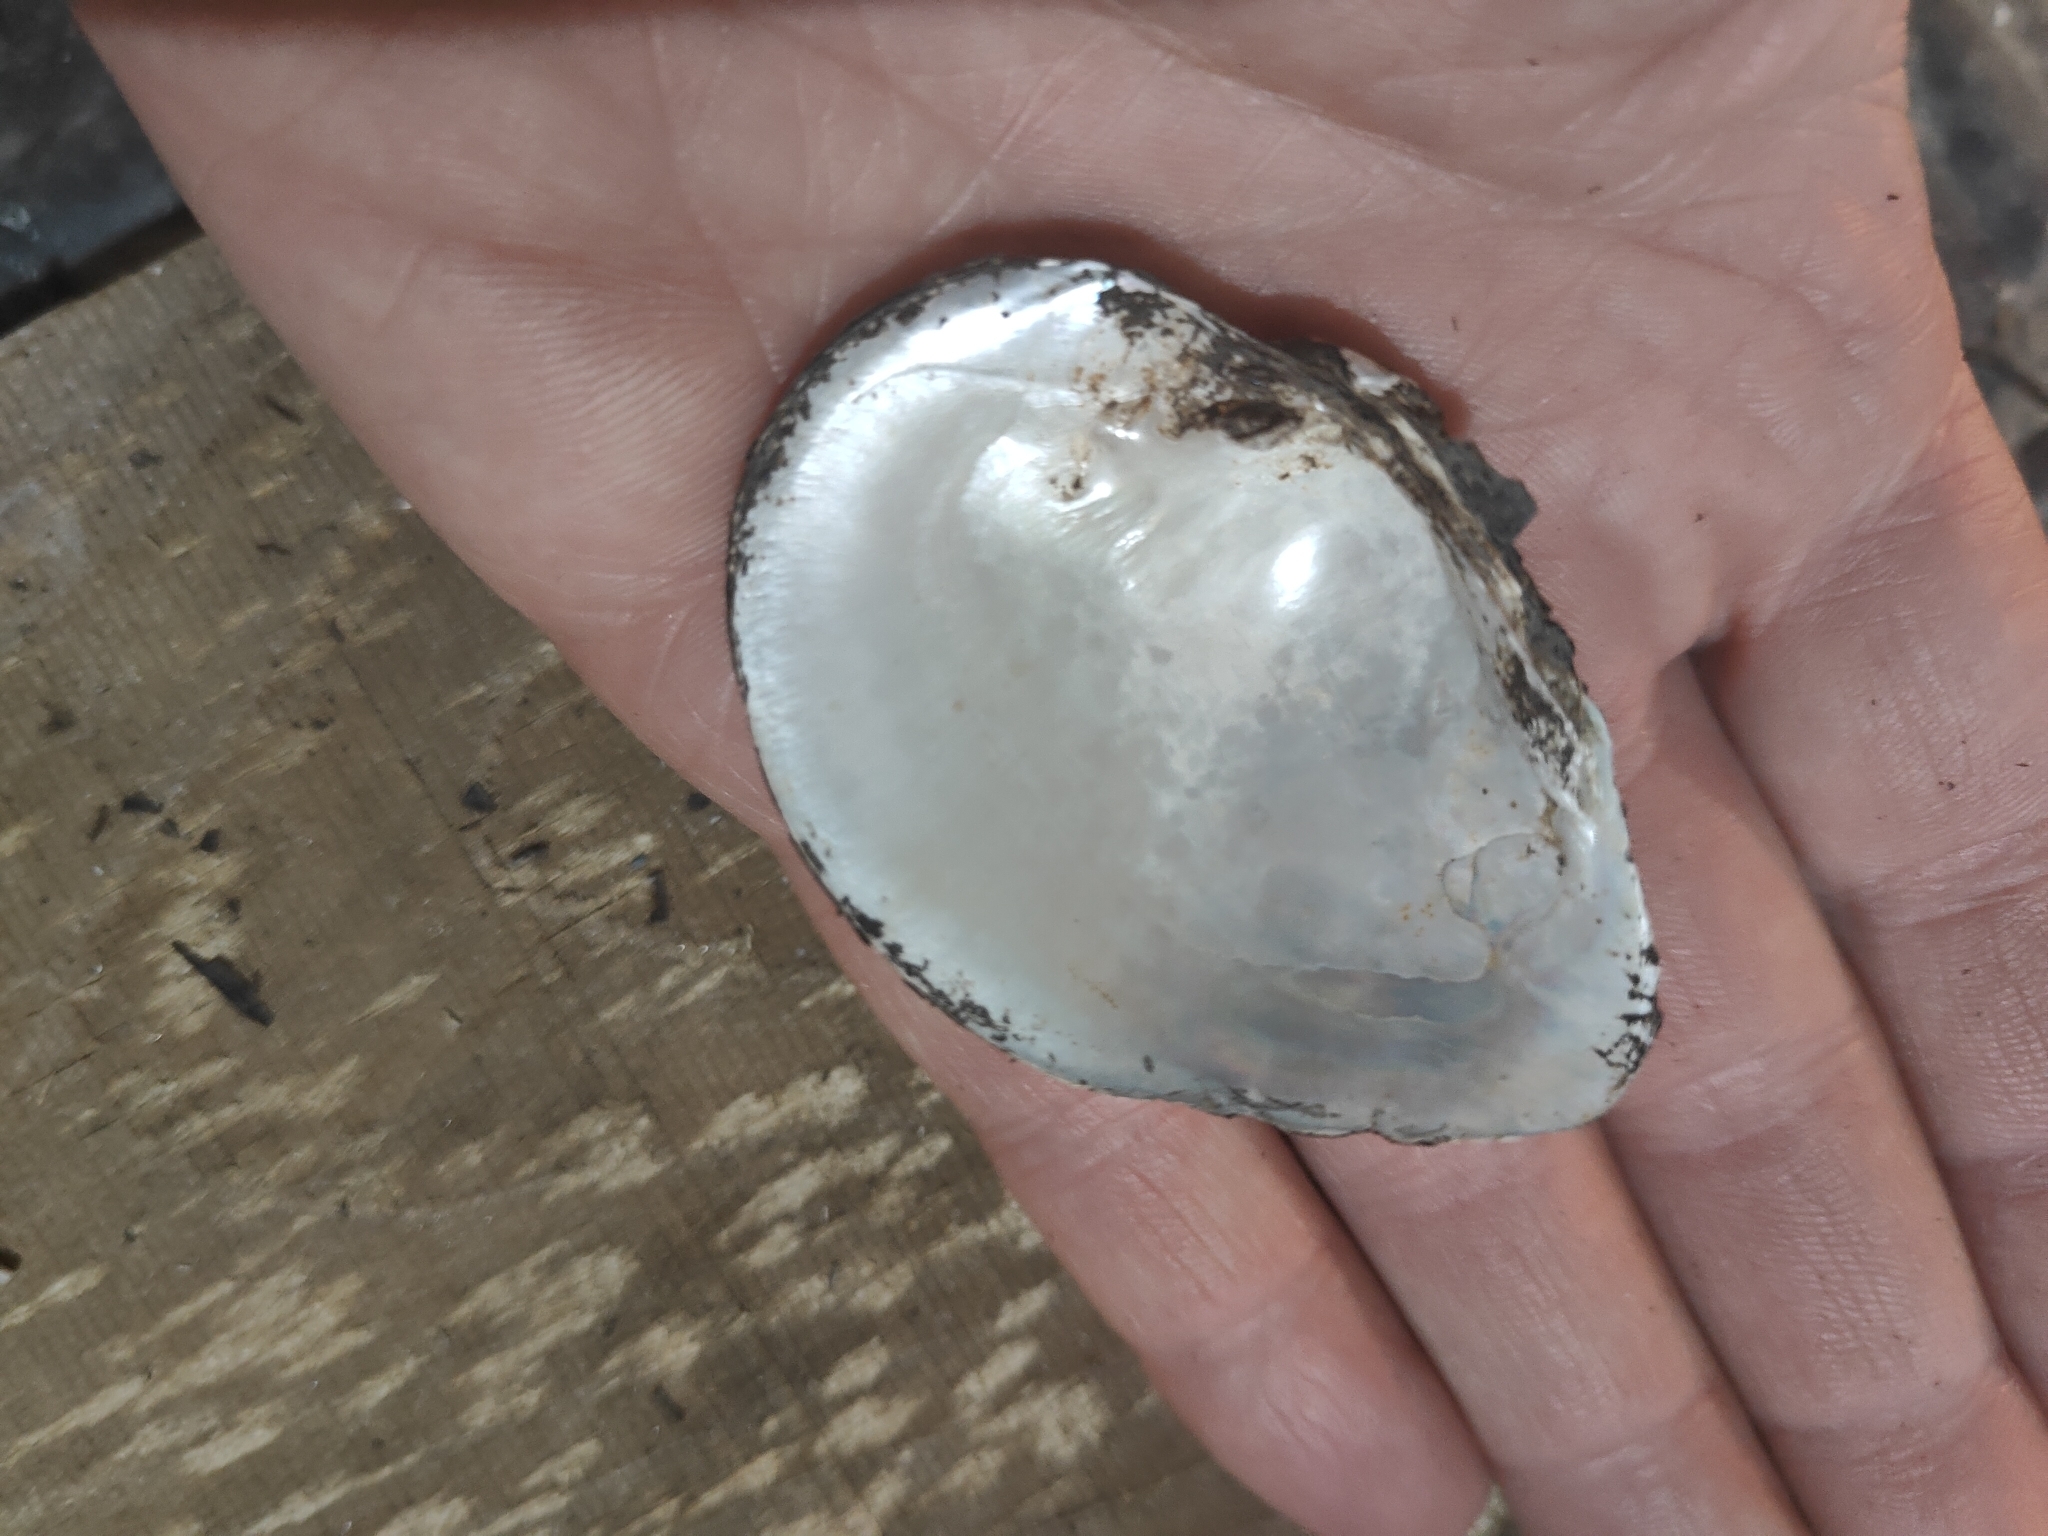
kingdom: Animalia
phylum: Mollusca
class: Bivalvia
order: Unionida
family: Unionidae
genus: Truncilla
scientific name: Truncilla truncata
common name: Deertoe
